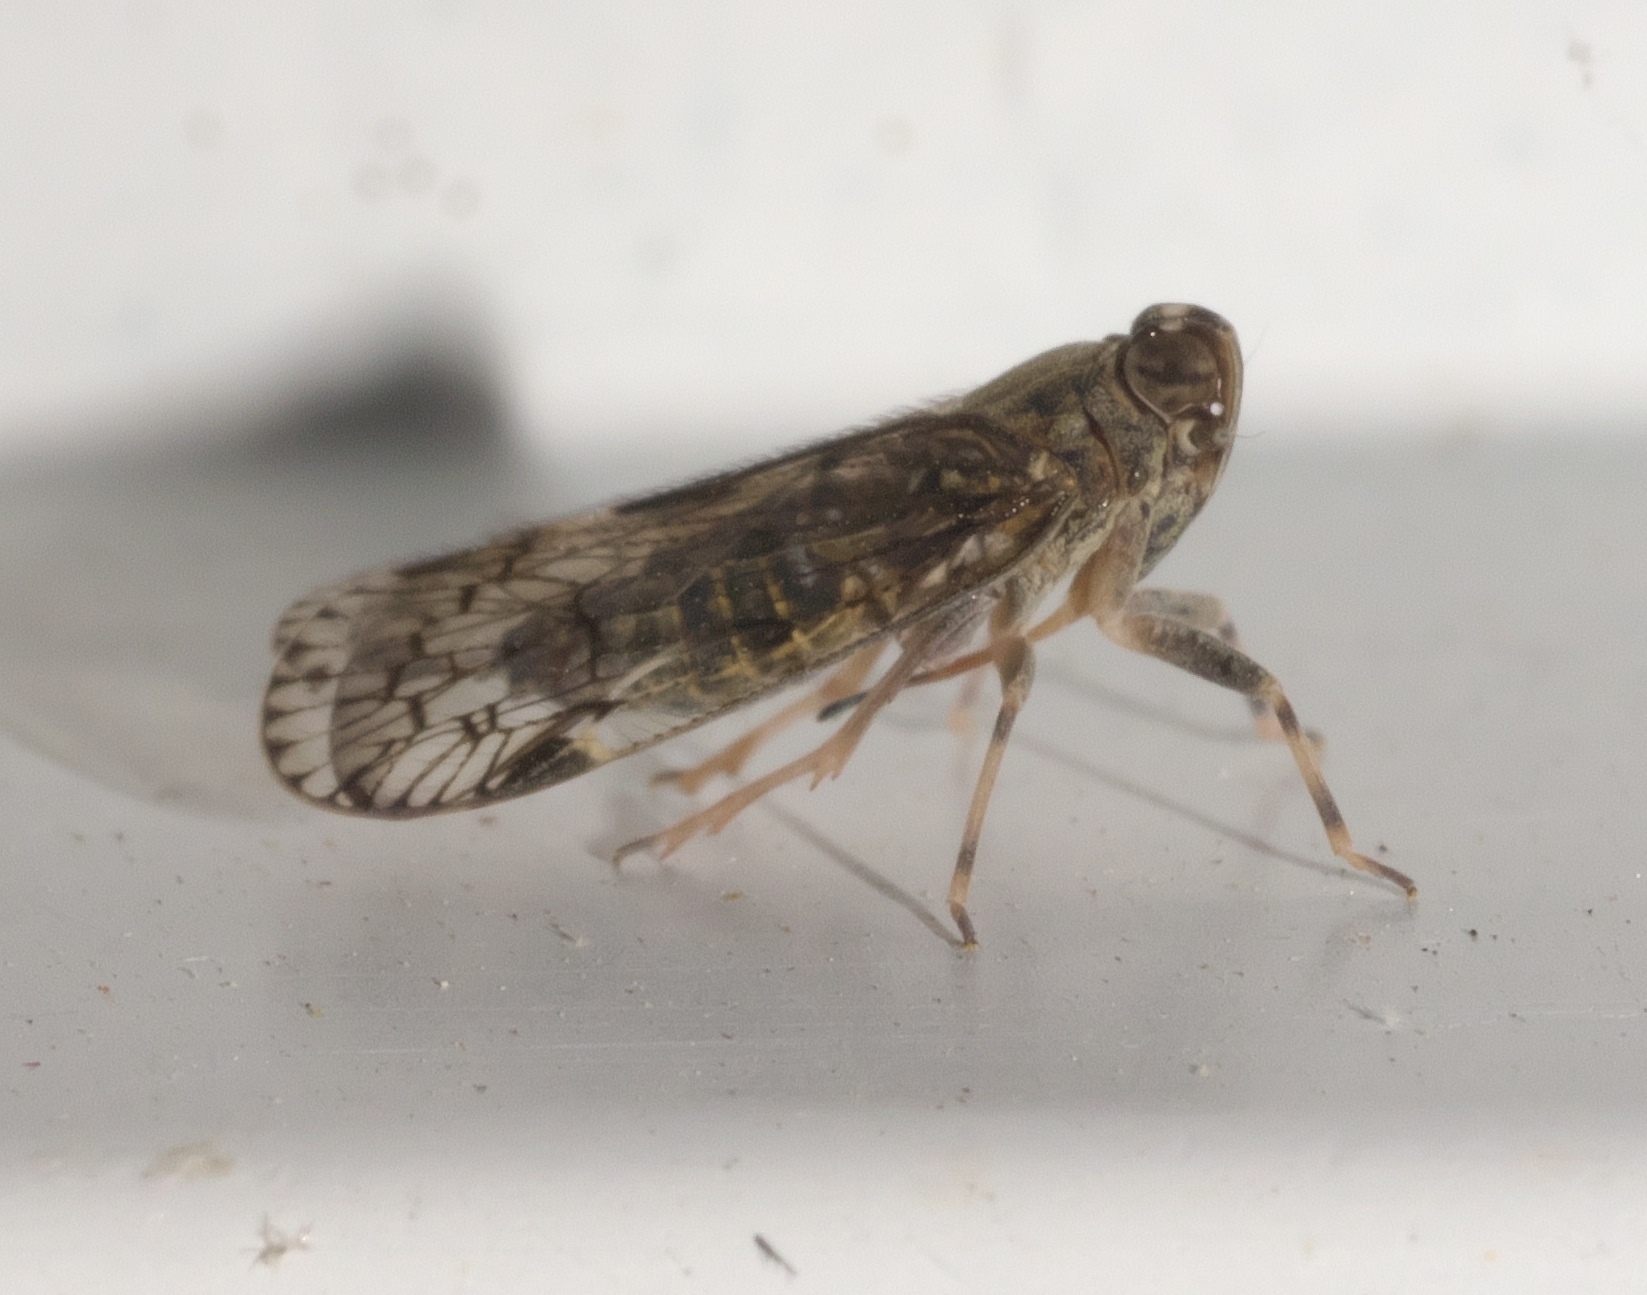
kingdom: Animalia
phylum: Arthropoda
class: Insecta
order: Hemiptera
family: Cixiidae
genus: Melanoliarus
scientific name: Melanoliarus placitus
